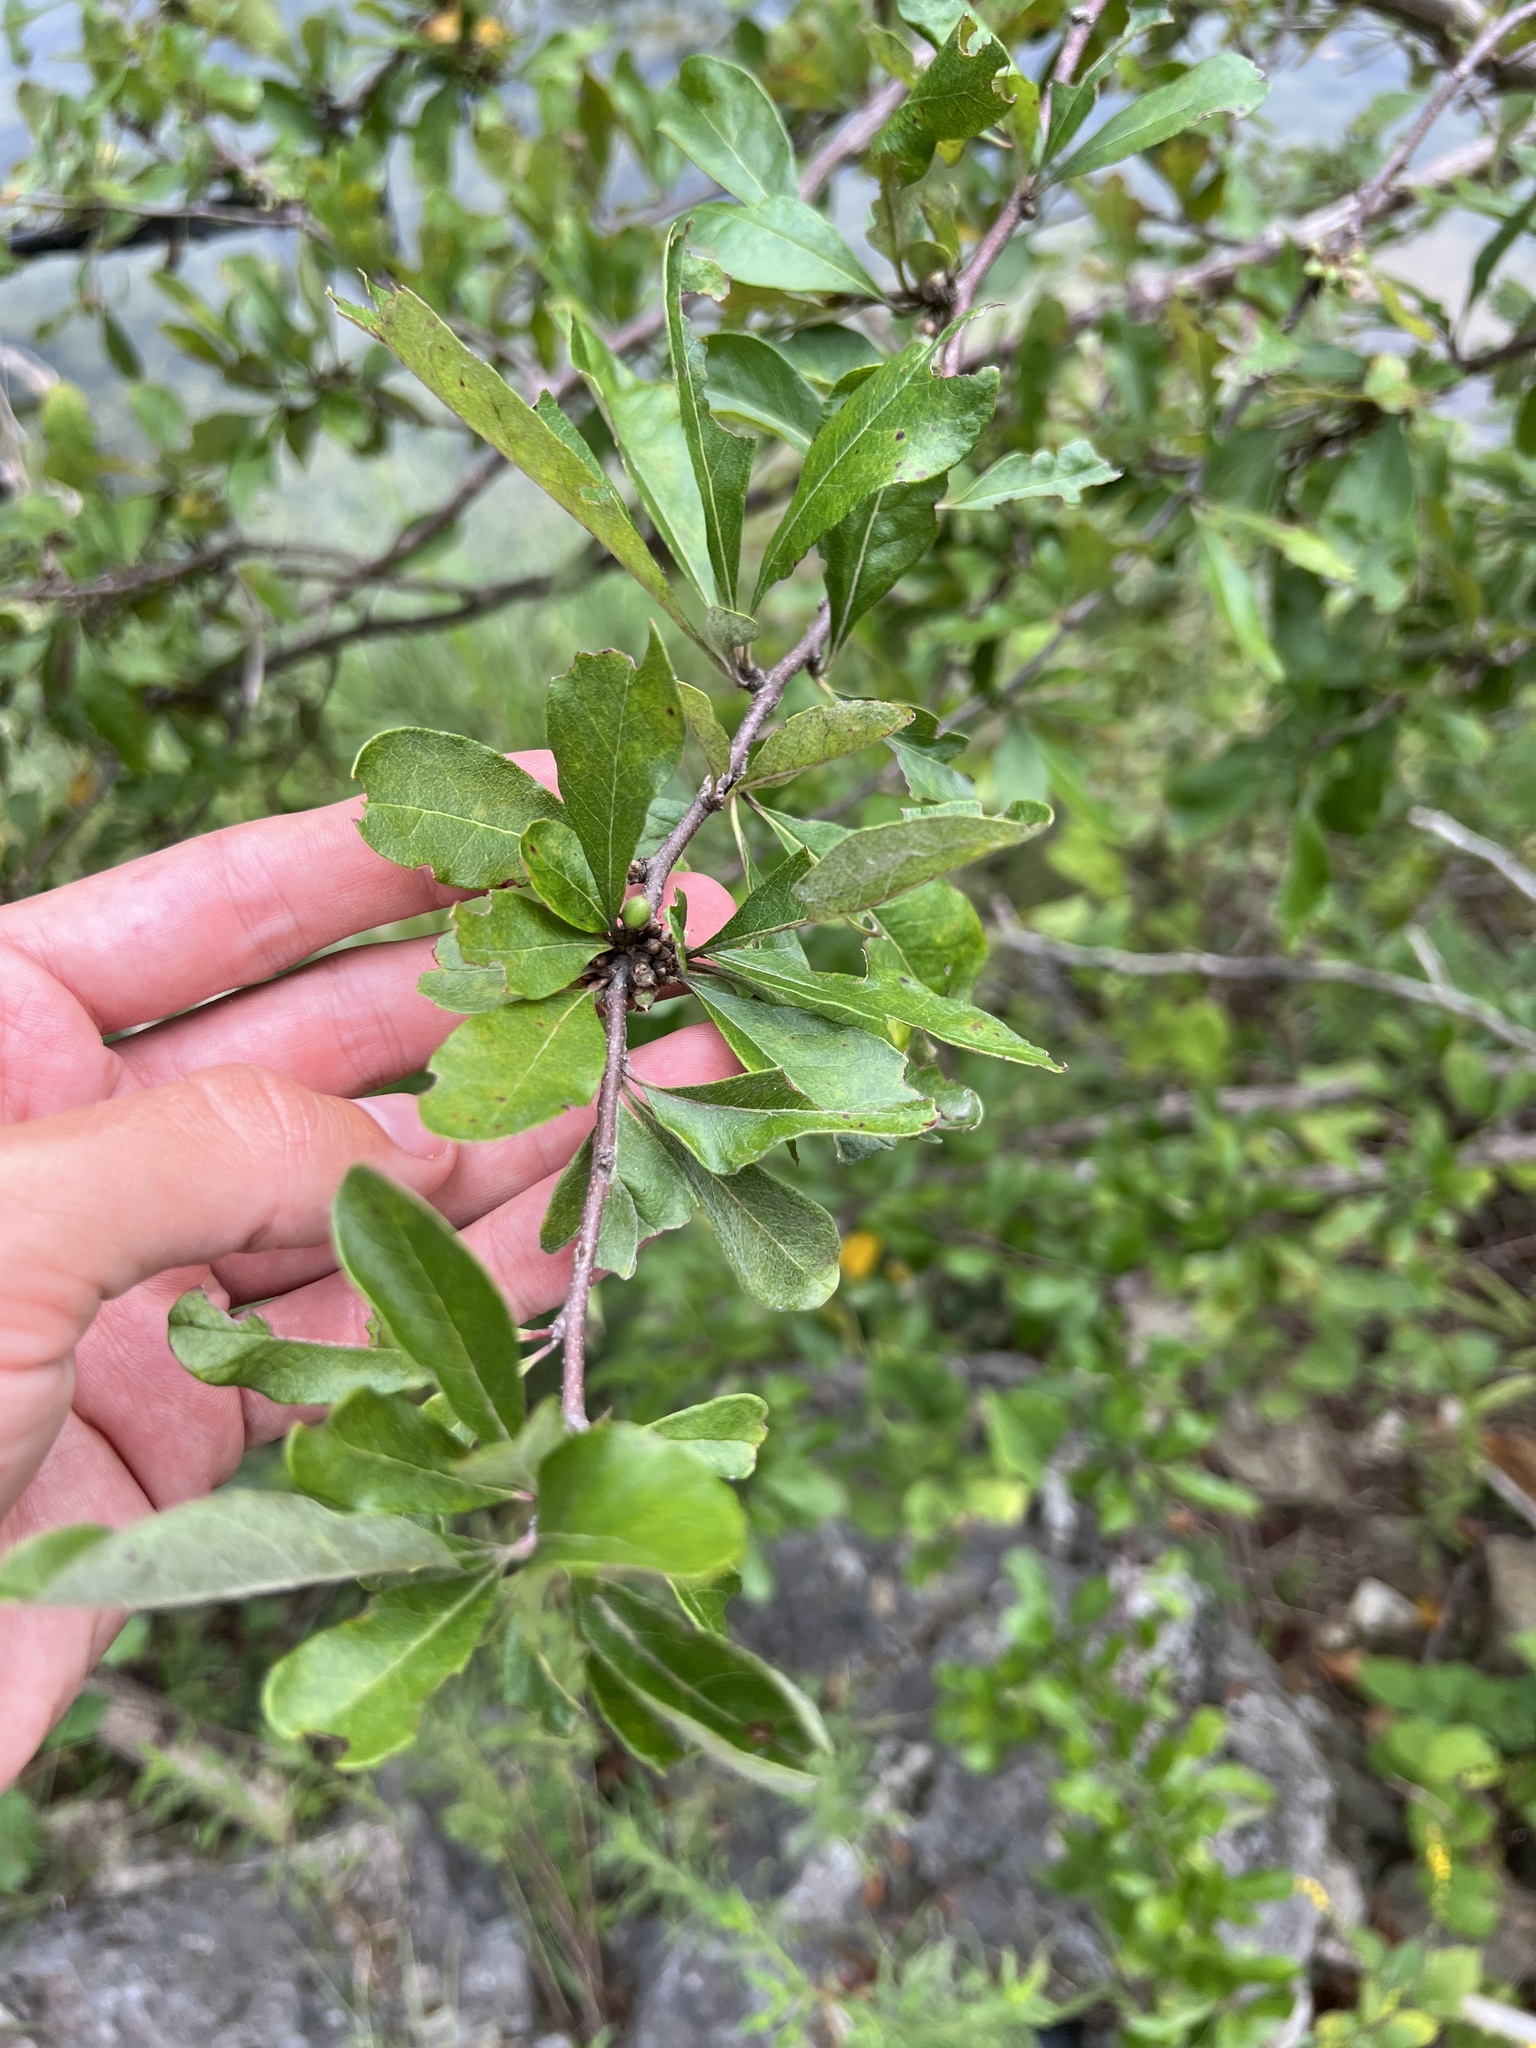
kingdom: Plantae
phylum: Tracheophyta
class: Magnoliopsida
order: Ericales
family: Sapotaceae
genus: Sideroxylon
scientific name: Sideroxylon lanuginosum
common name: Chittamwood
